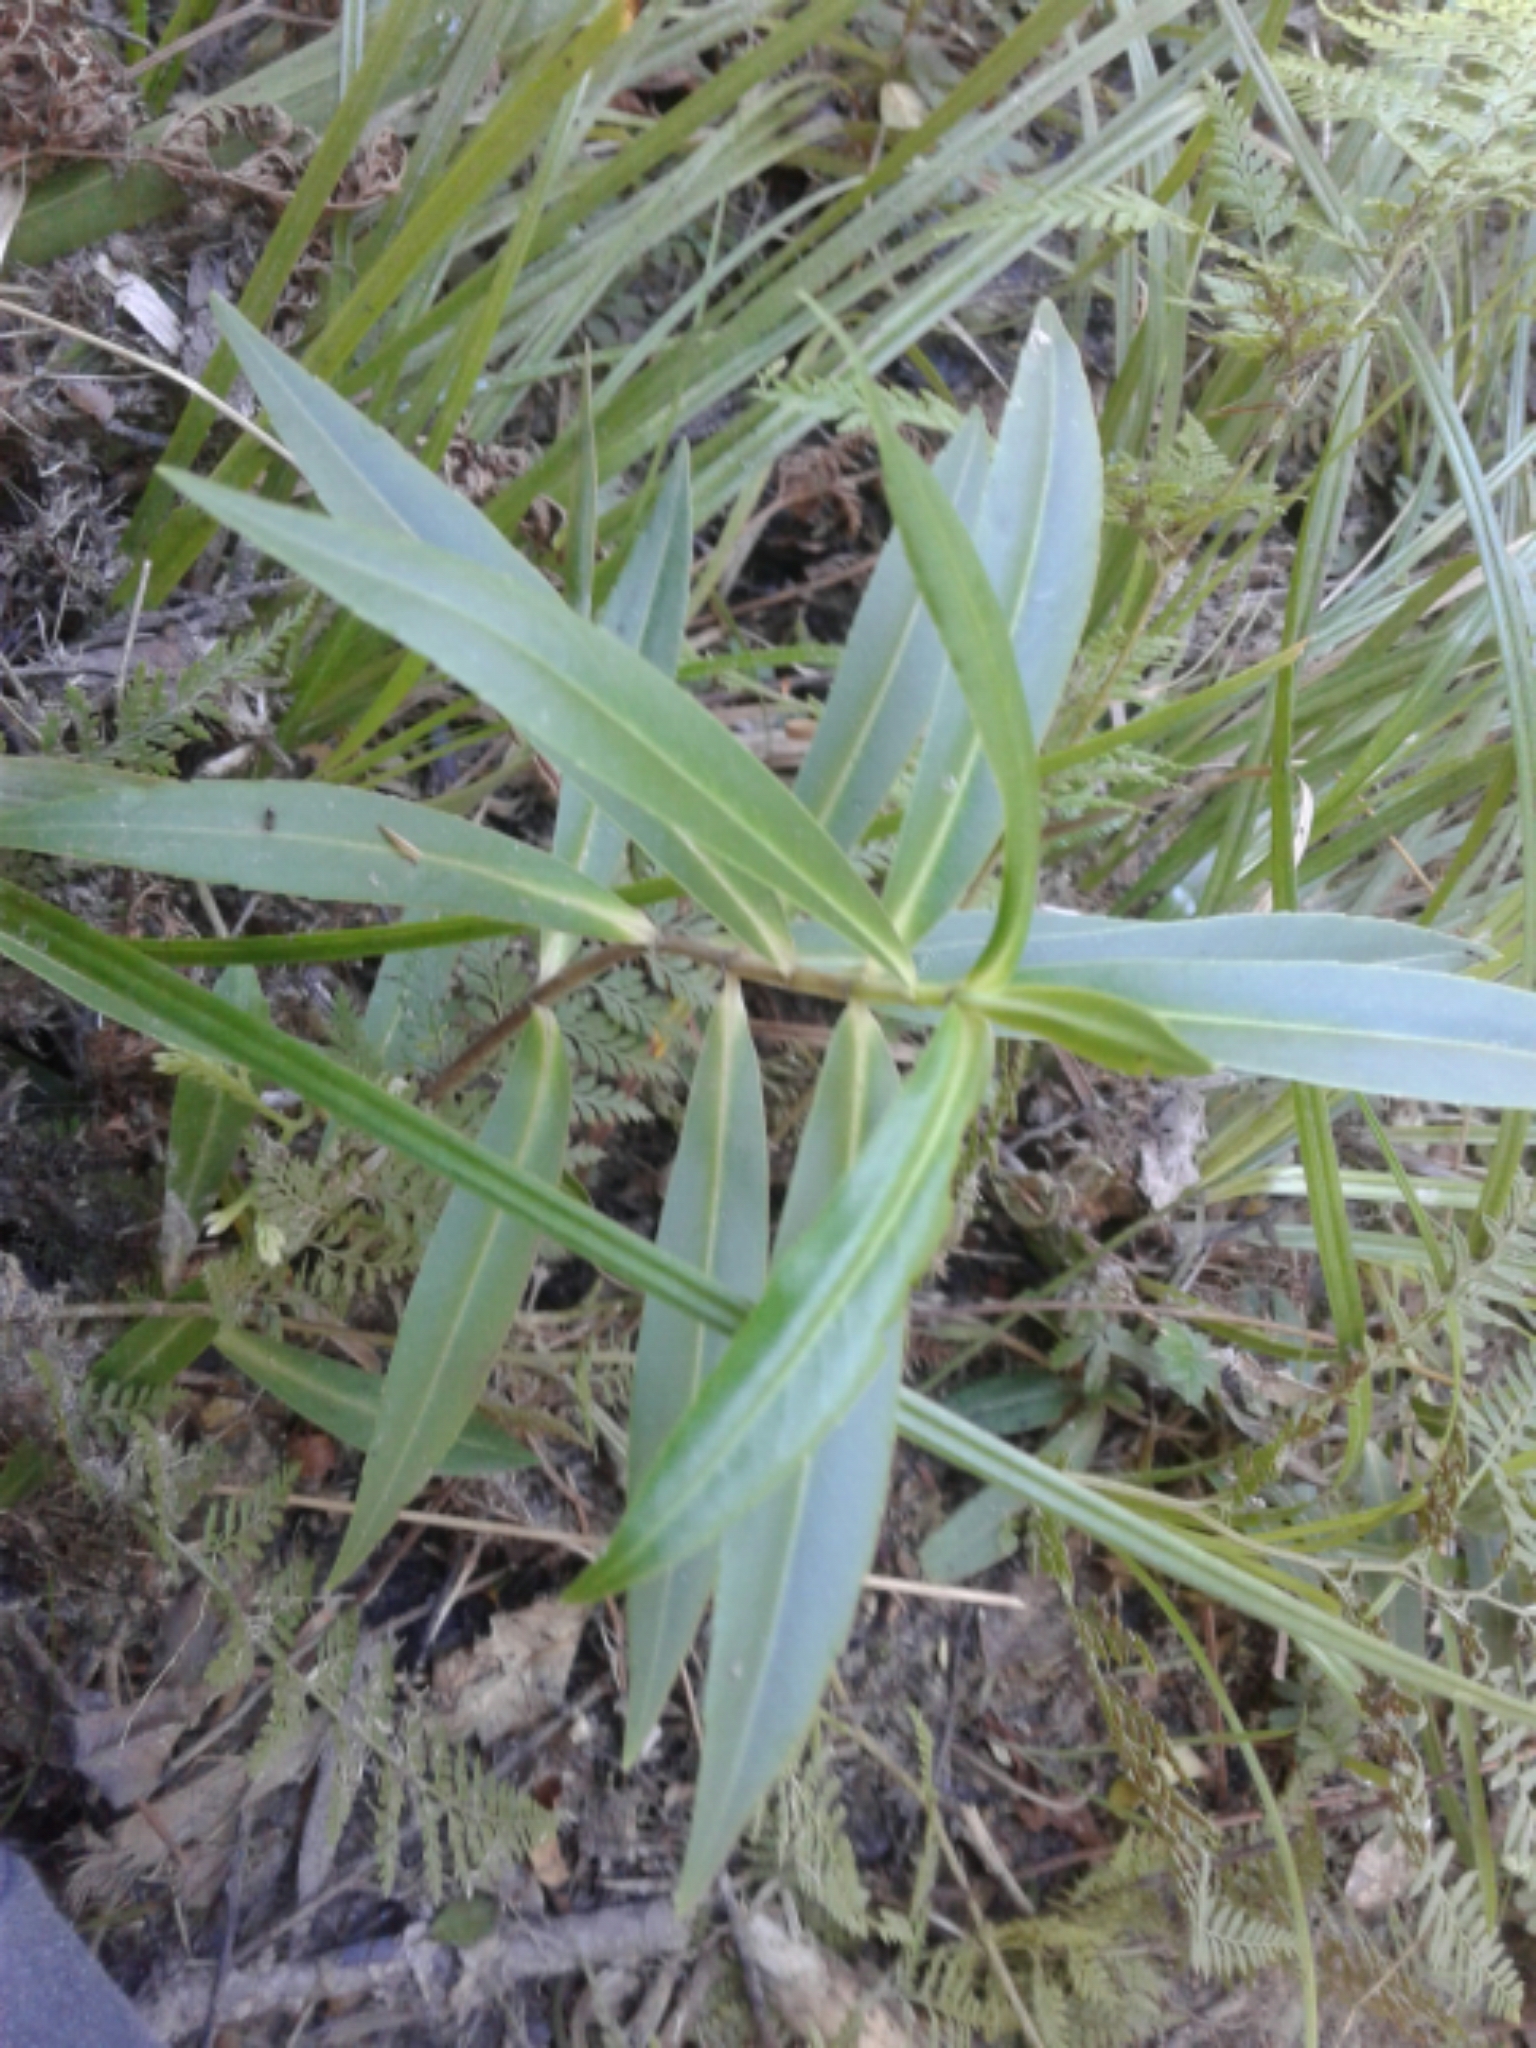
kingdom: Plantae
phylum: Tracheophyta
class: Magnoliopsida
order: Lamiales
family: Plantaginaceae
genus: Veronica
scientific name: Veronica salicifolia
